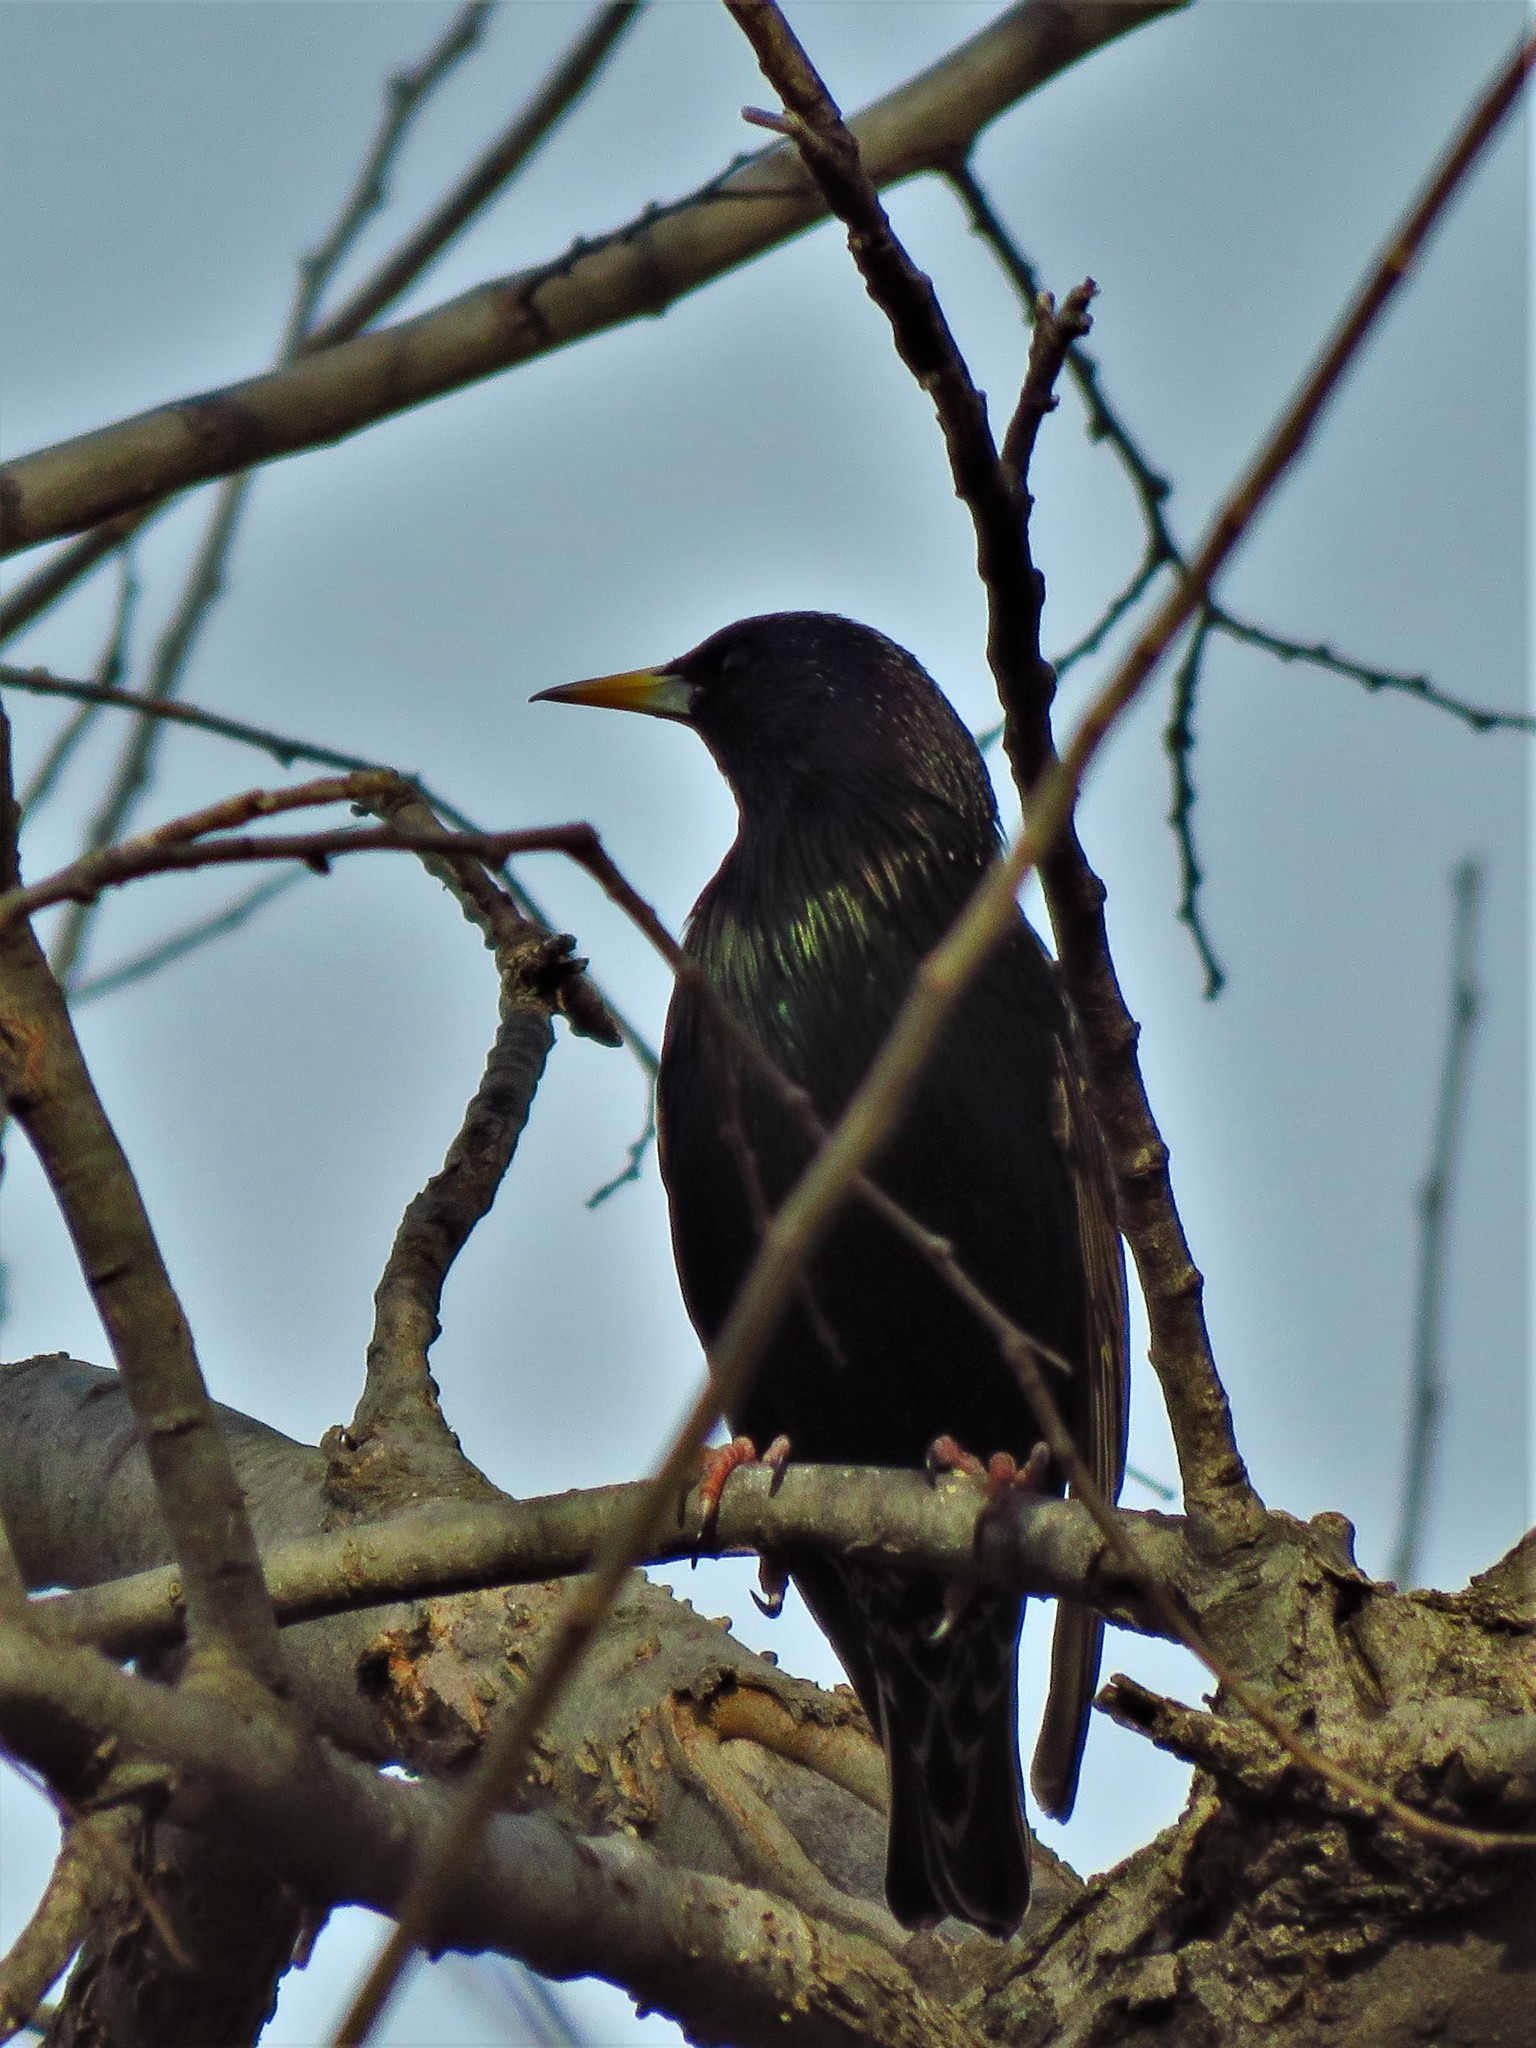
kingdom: Animalia
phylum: Chordata
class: Aves
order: Passeriformes
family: Sturnidae
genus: Sturnus
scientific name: Sturnus vulgaris
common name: Common starling
